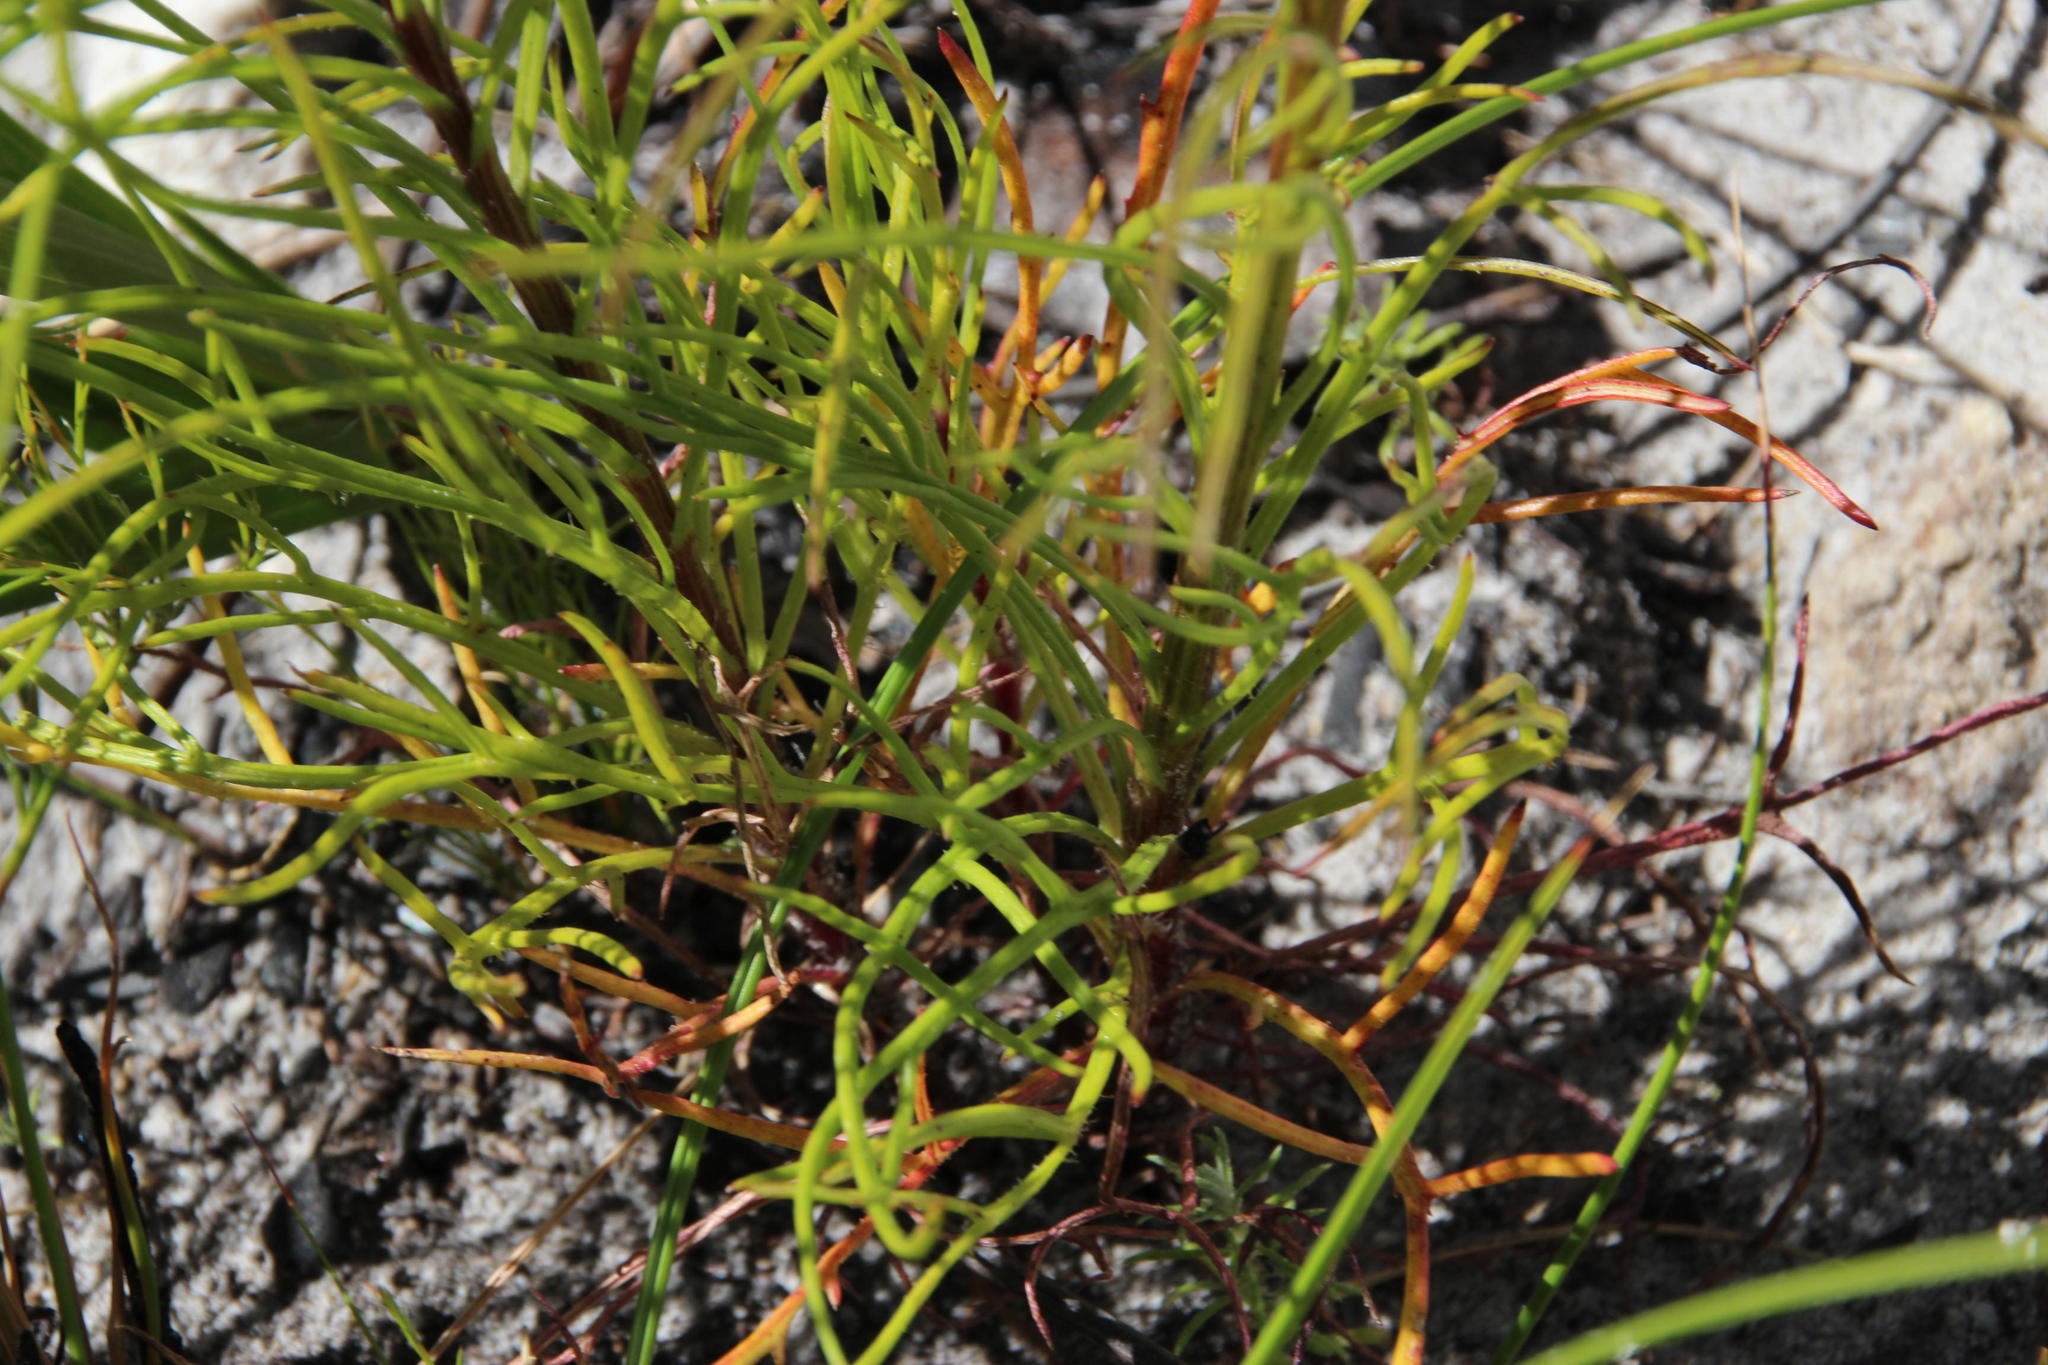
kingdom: Plantae
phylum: Tracheophyta
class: Magnoliopsida
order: Asterales
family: Asteraceae
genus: Senecio
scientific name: Senecio chrysocoma
